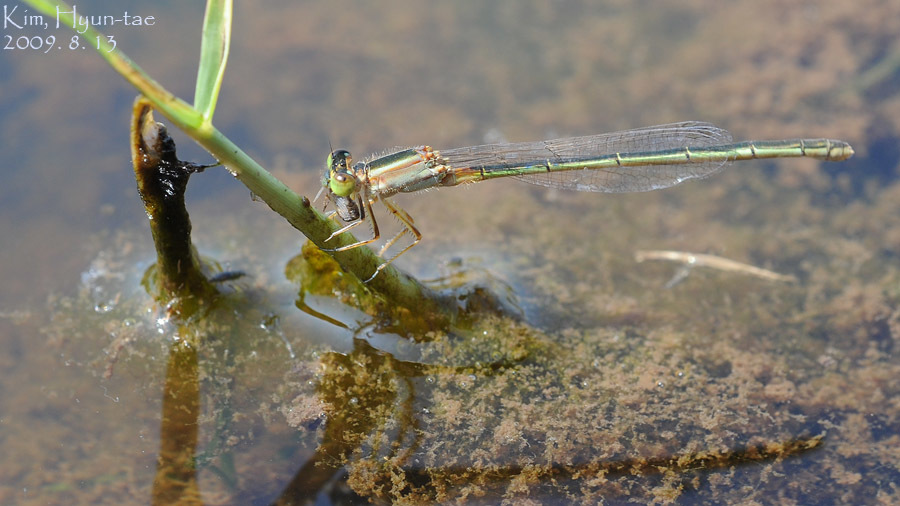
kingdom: Animalia
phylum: Arthropoda
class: Insecta
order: Odonata
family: Coenagrionidae
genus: Ischnura
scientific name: Ischnura senegalensis
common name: Tropical bluetail
